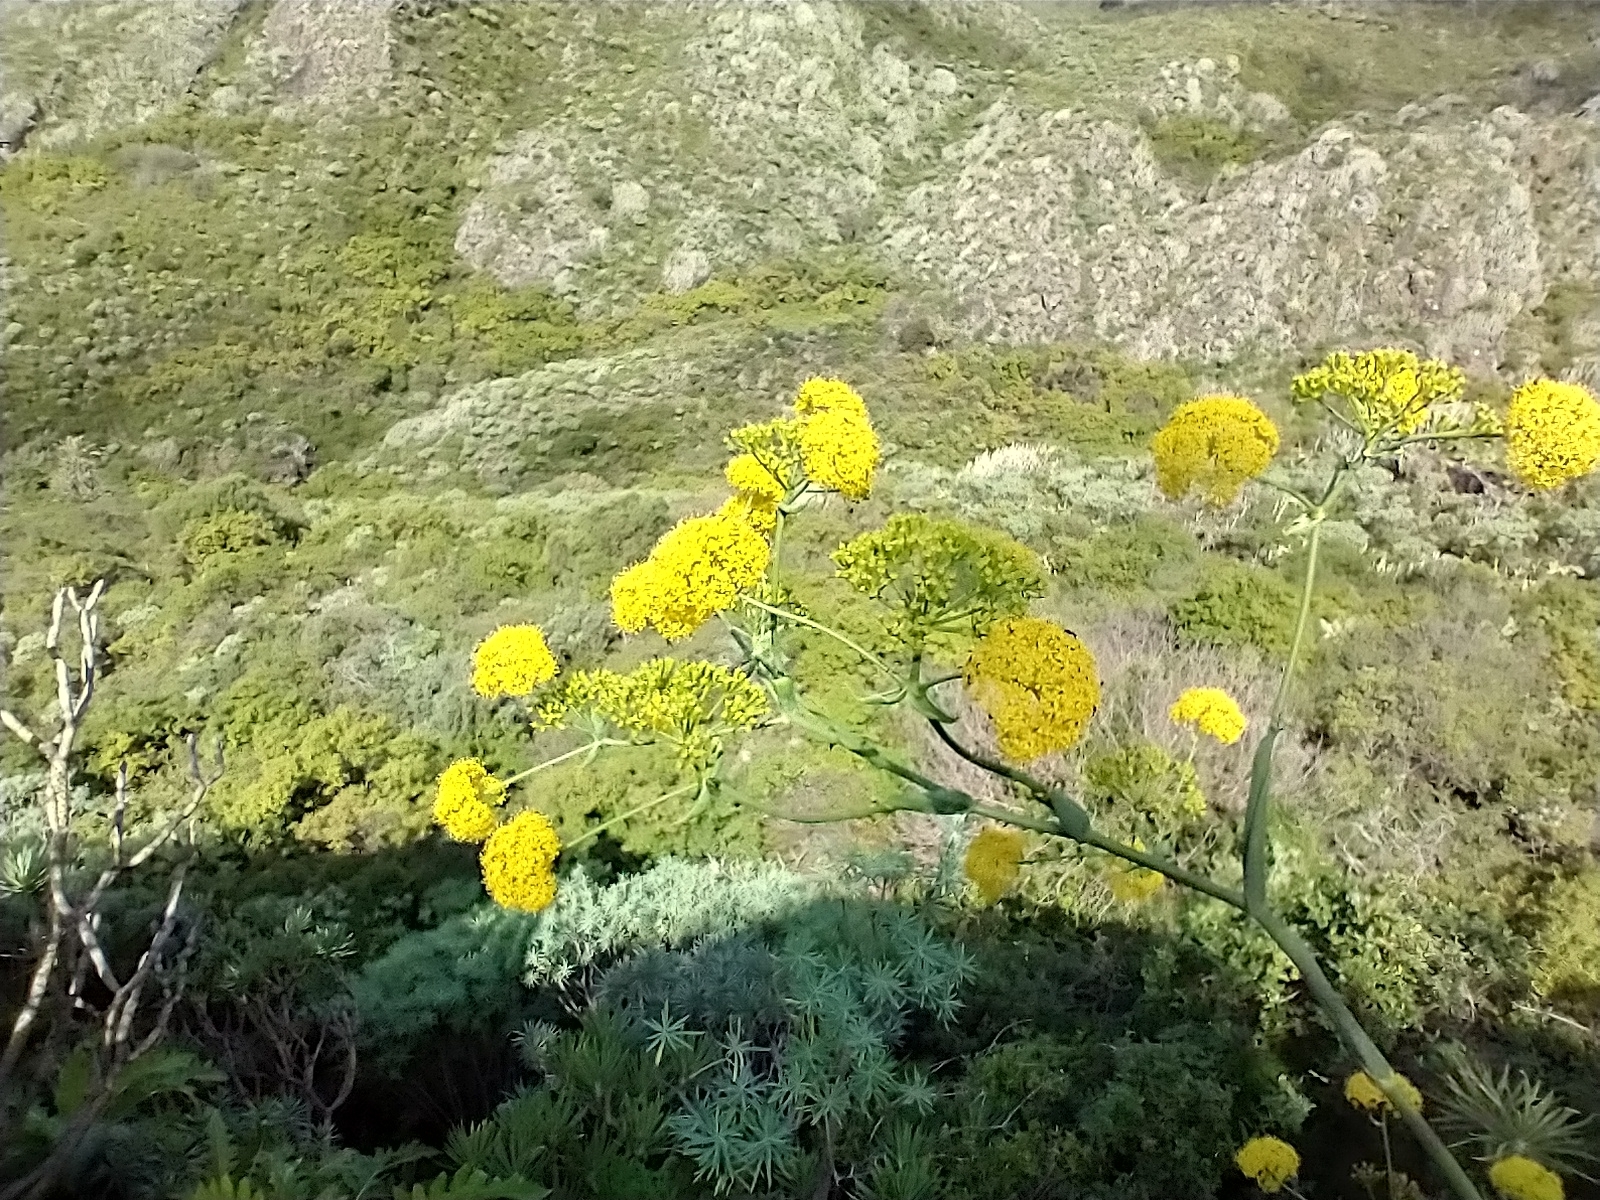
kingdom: Plantae
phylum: Tracheophyta
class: Magnoliopsida
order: Apiales
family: Apiaceae
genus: Ferula
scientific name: Ferula communis
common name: Giant fennel
